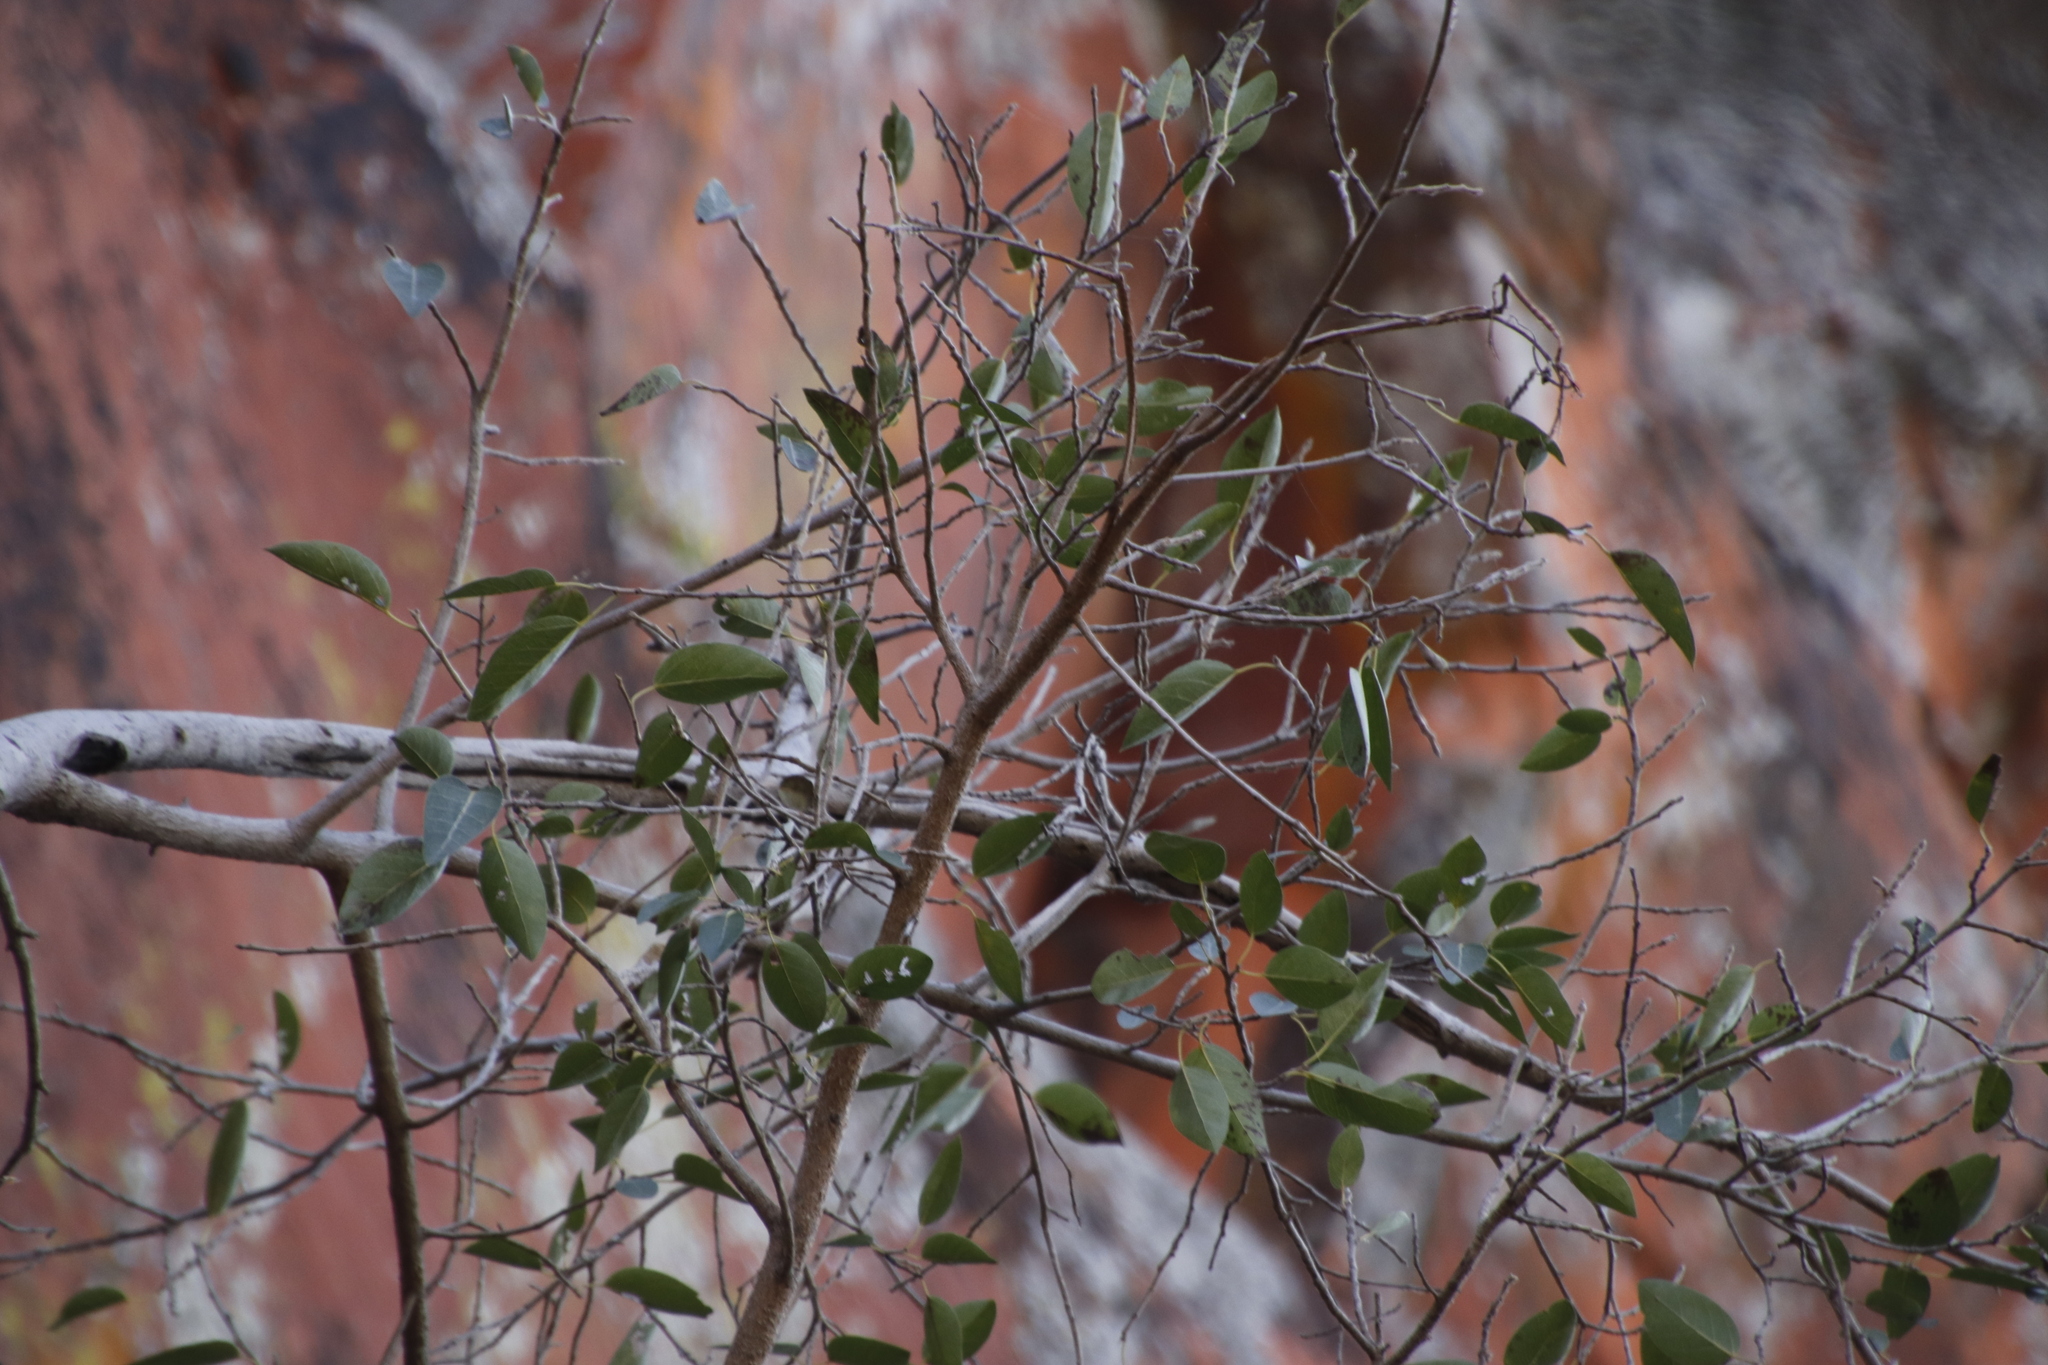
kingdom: Plantae
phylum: Tracheophyta
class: Magnoliopsida
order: Rosales
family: Moraceae
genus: Ficus
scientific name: Ficus cordata
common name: Namaqua rock fig
